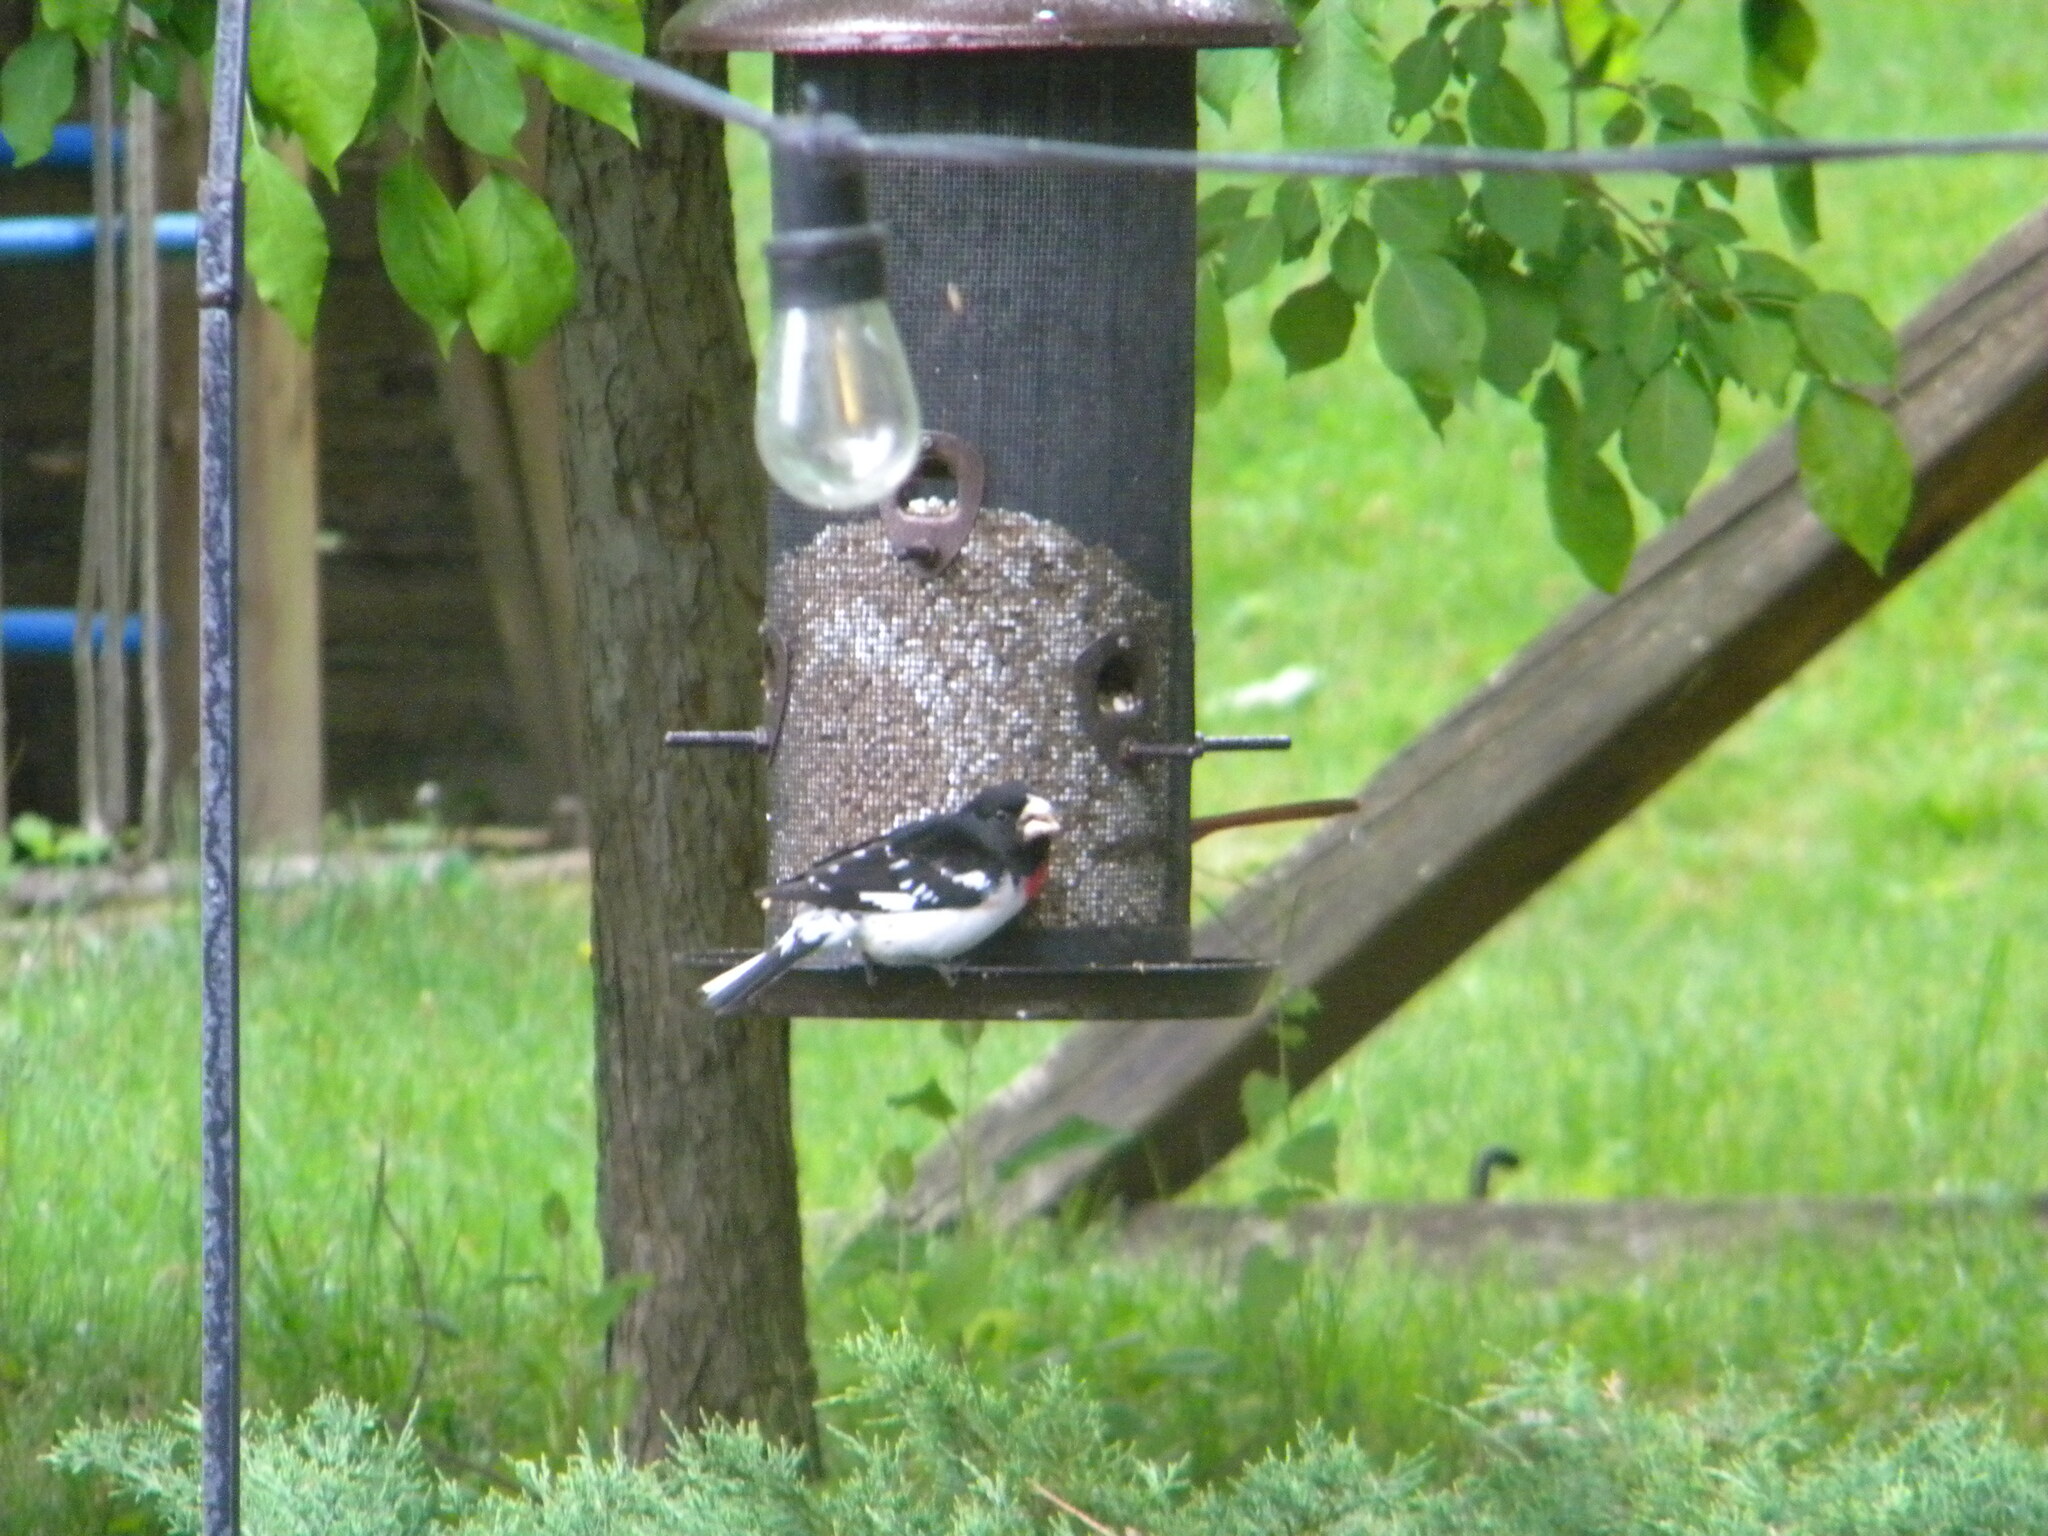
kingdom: Animalia
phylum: Chordata
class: Aves
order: Passeriformes
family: Cardinalidae
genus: Pheucticus
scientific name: Pheucticus ludovicianus
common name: Rose-breasted grosbeak
